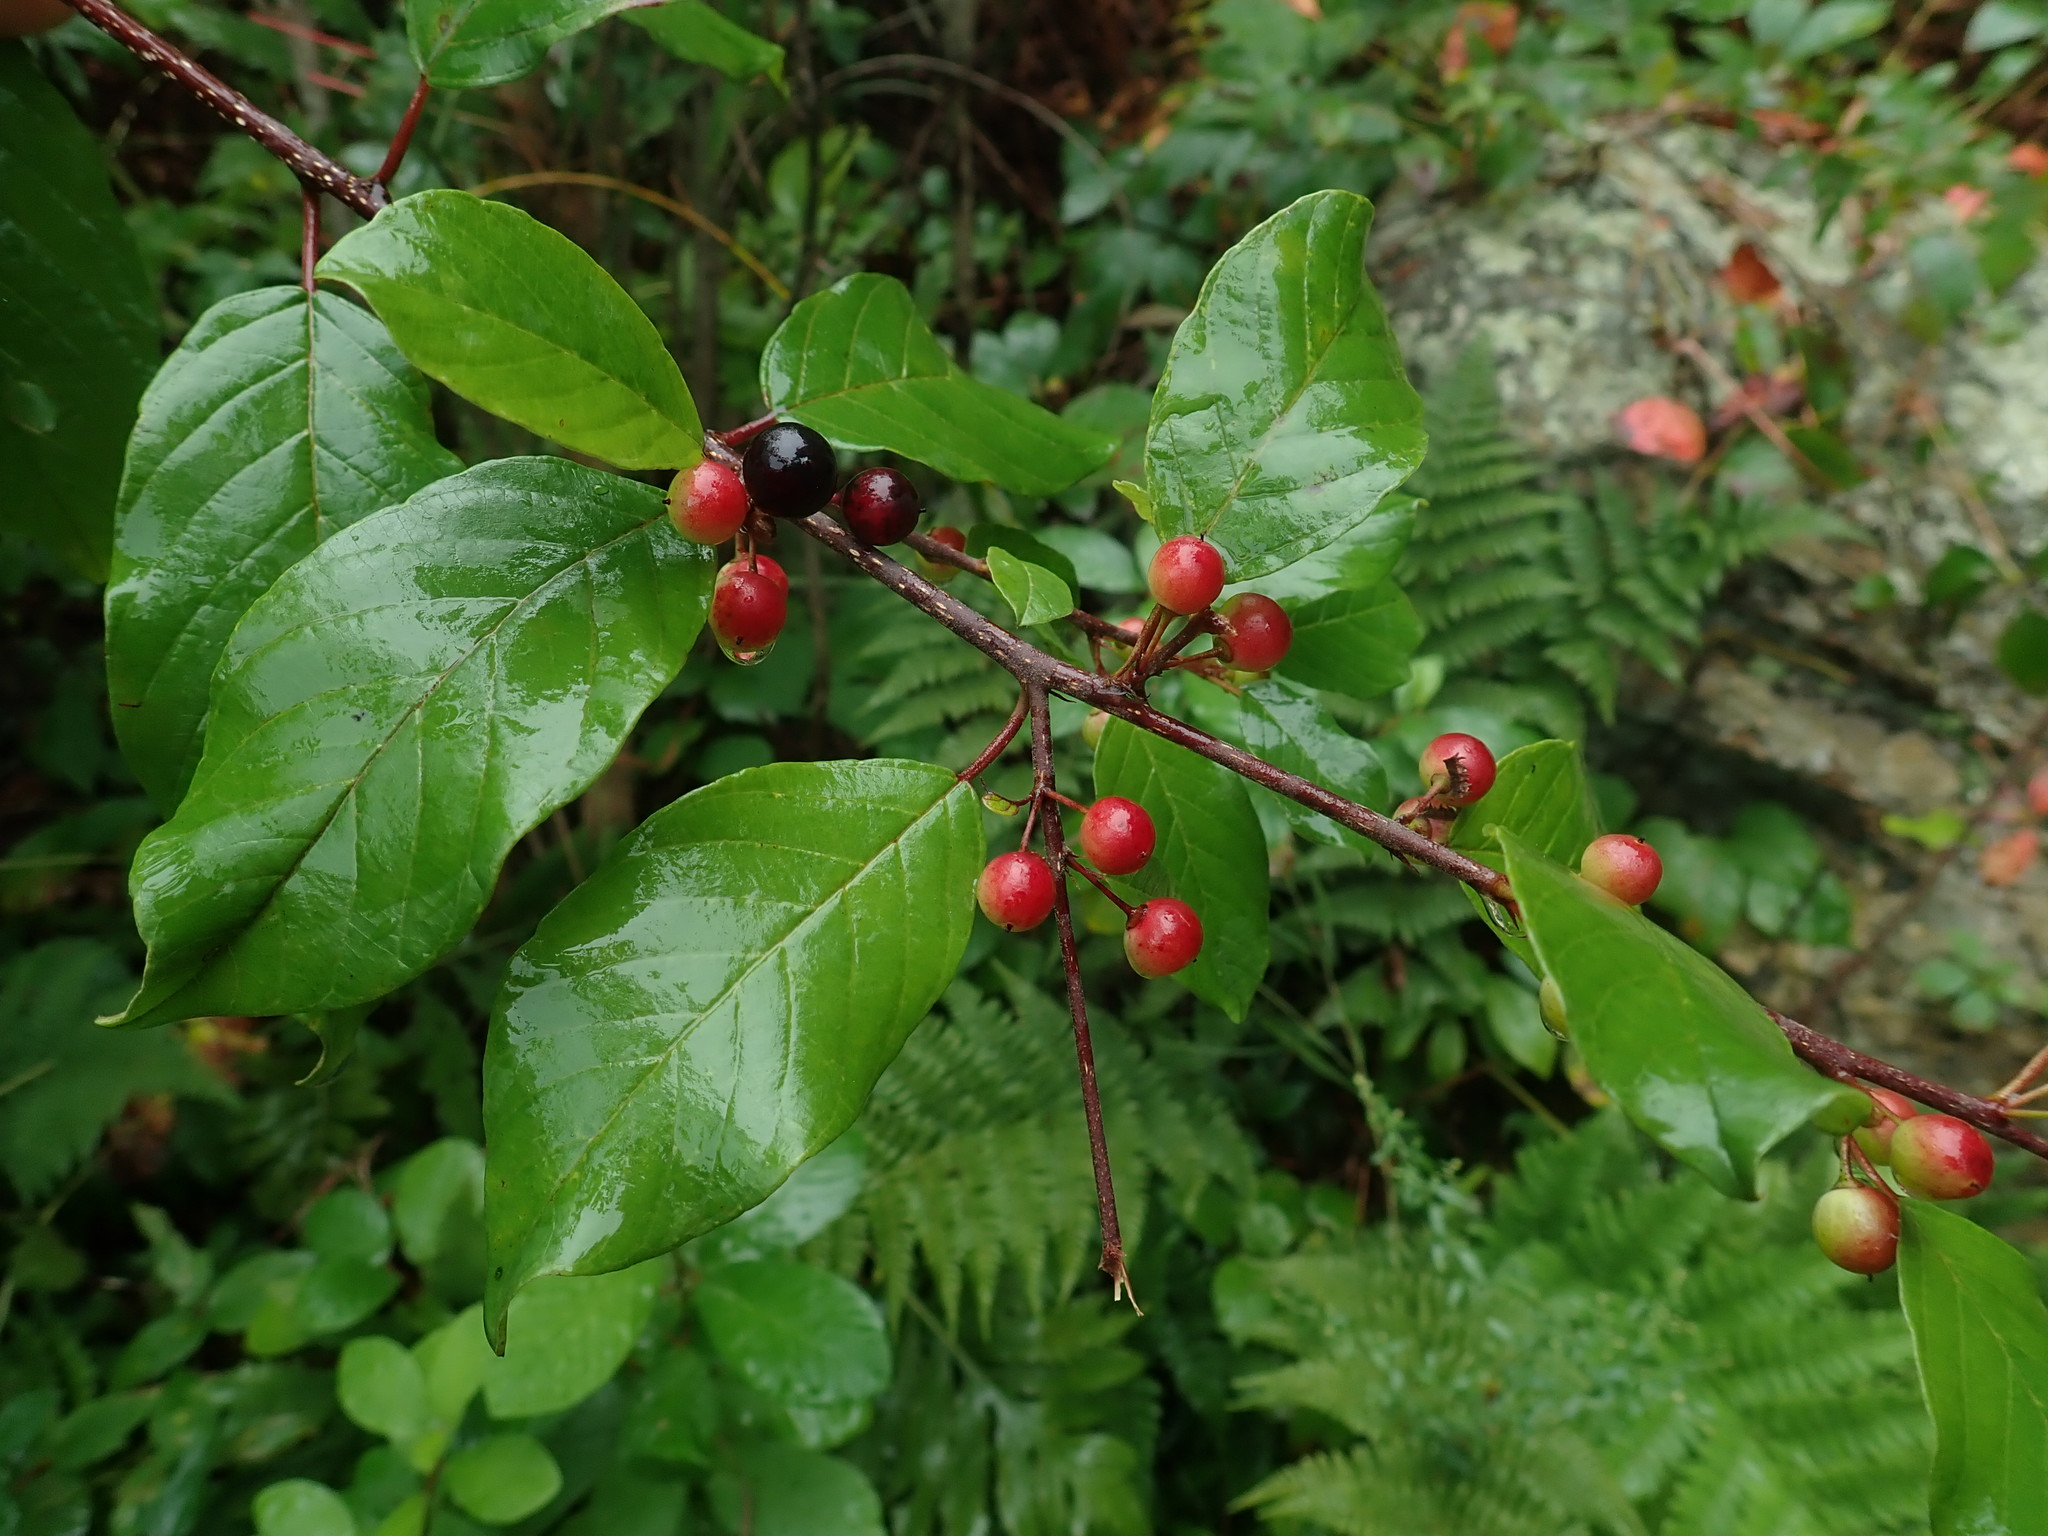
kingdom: Plantae
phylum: Tracheophyta
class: Magnoliopsida
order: Rosales
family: Rhamnaceae
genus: Frangula
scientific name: Frangula alnus
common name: Alder buckthorn
